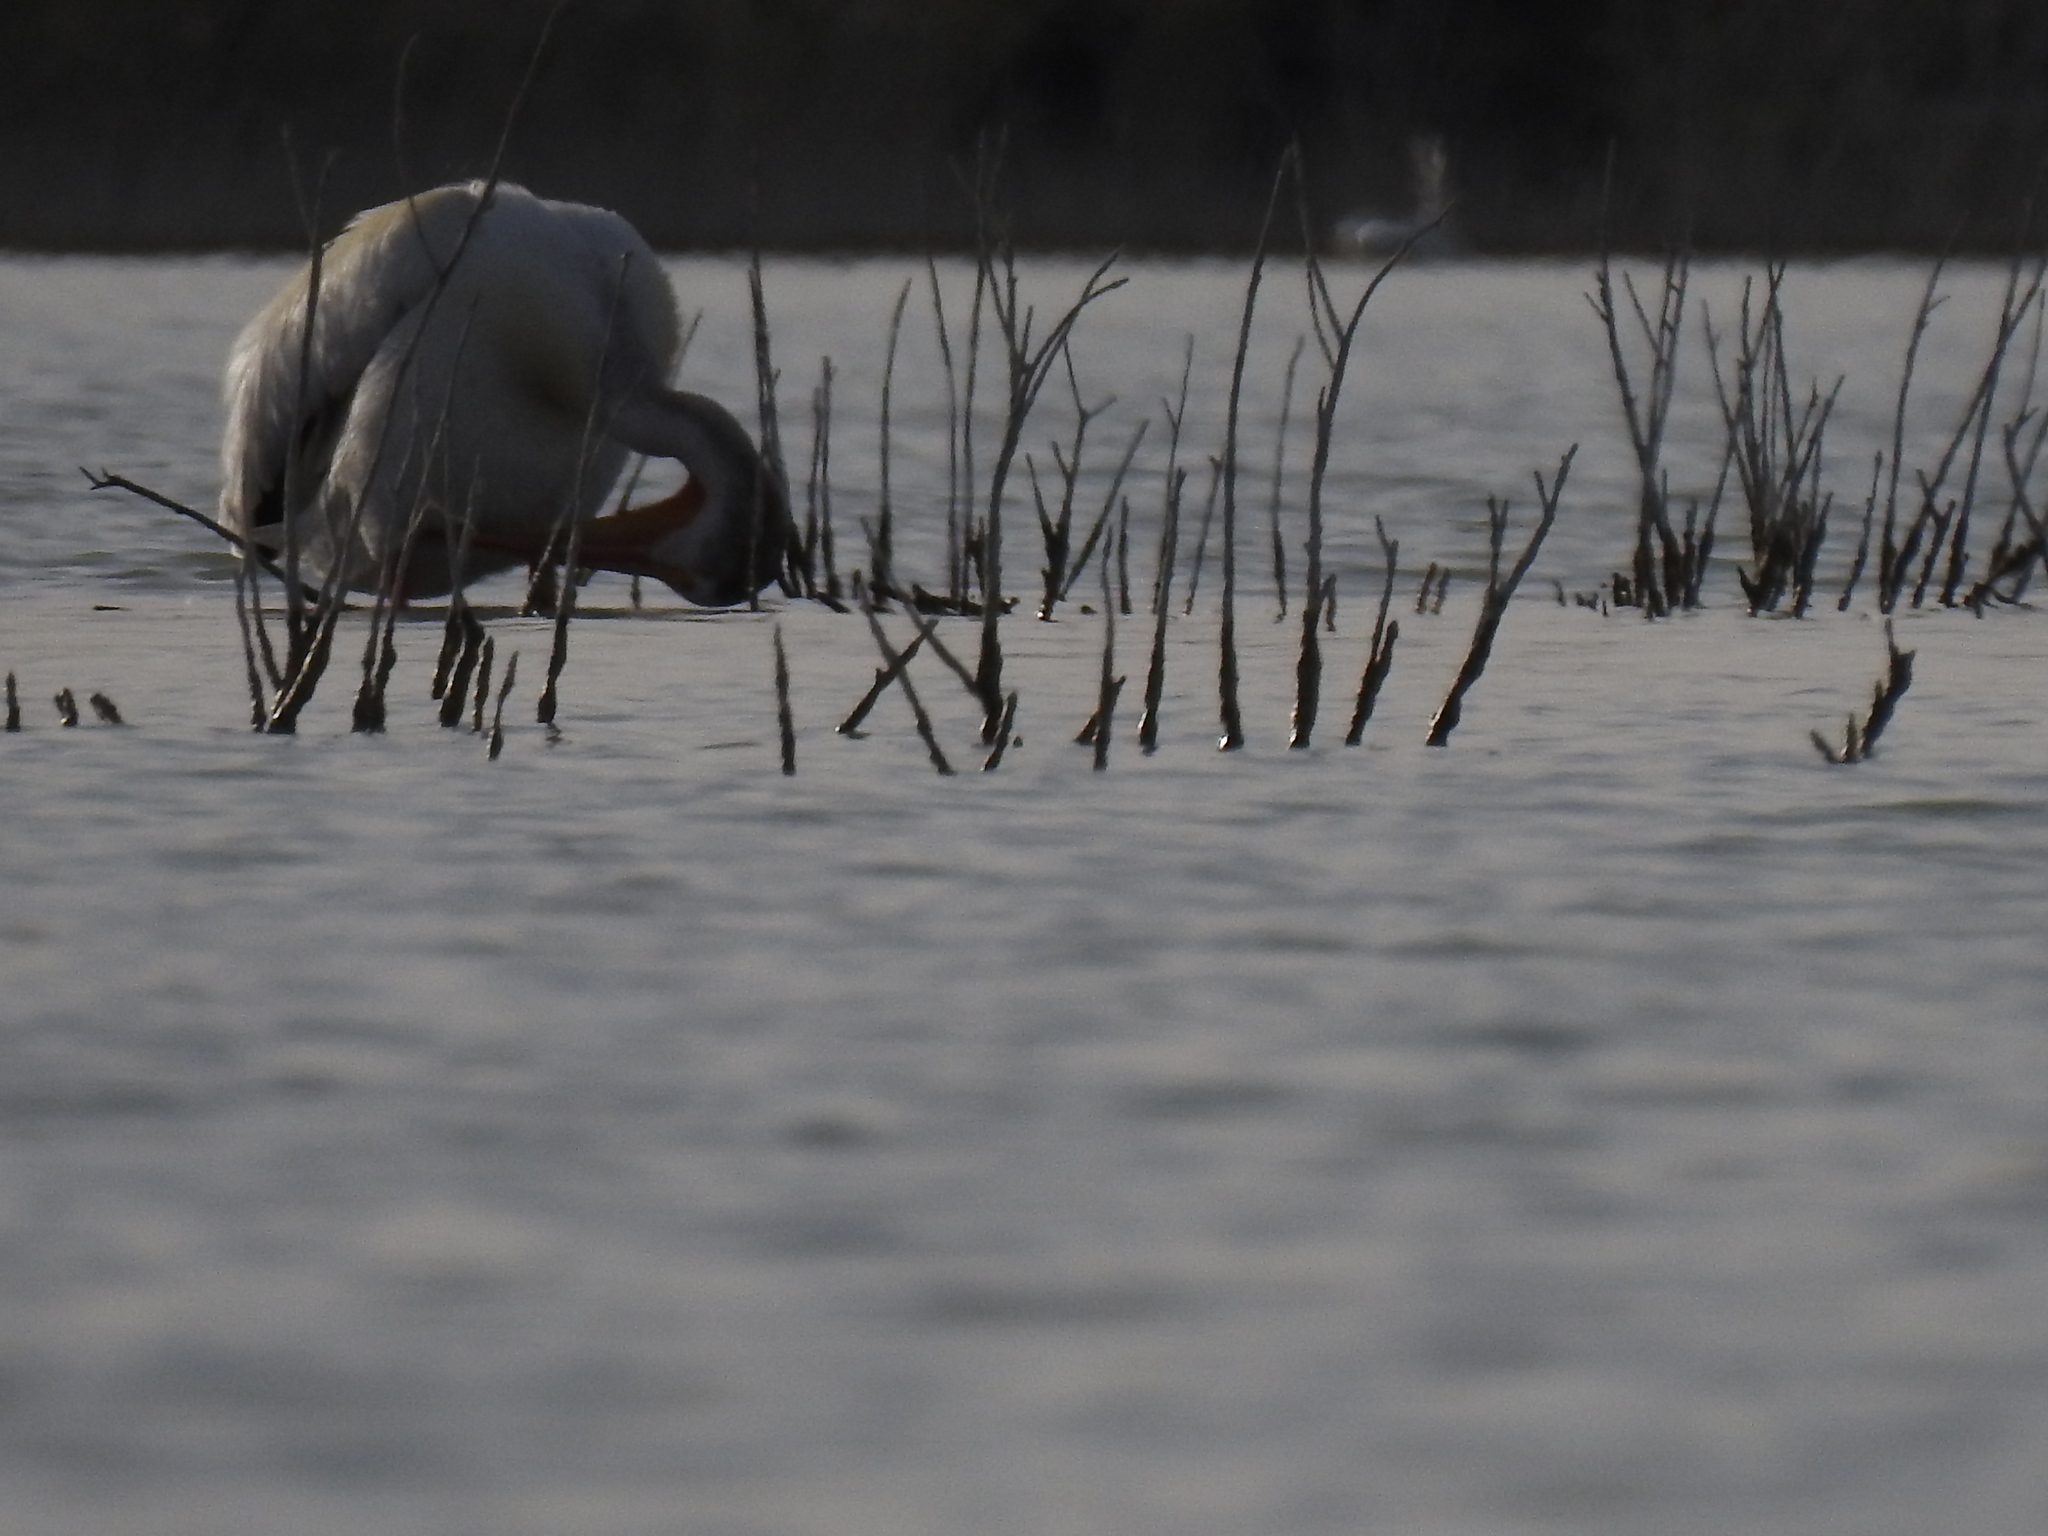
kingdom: Animalia
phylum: Chordata
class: Aves
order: Pelecaniformes
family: Pelecanidae
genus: Pelecanus
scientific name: Pelecanus erythrorhynchos
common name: American white pelican
